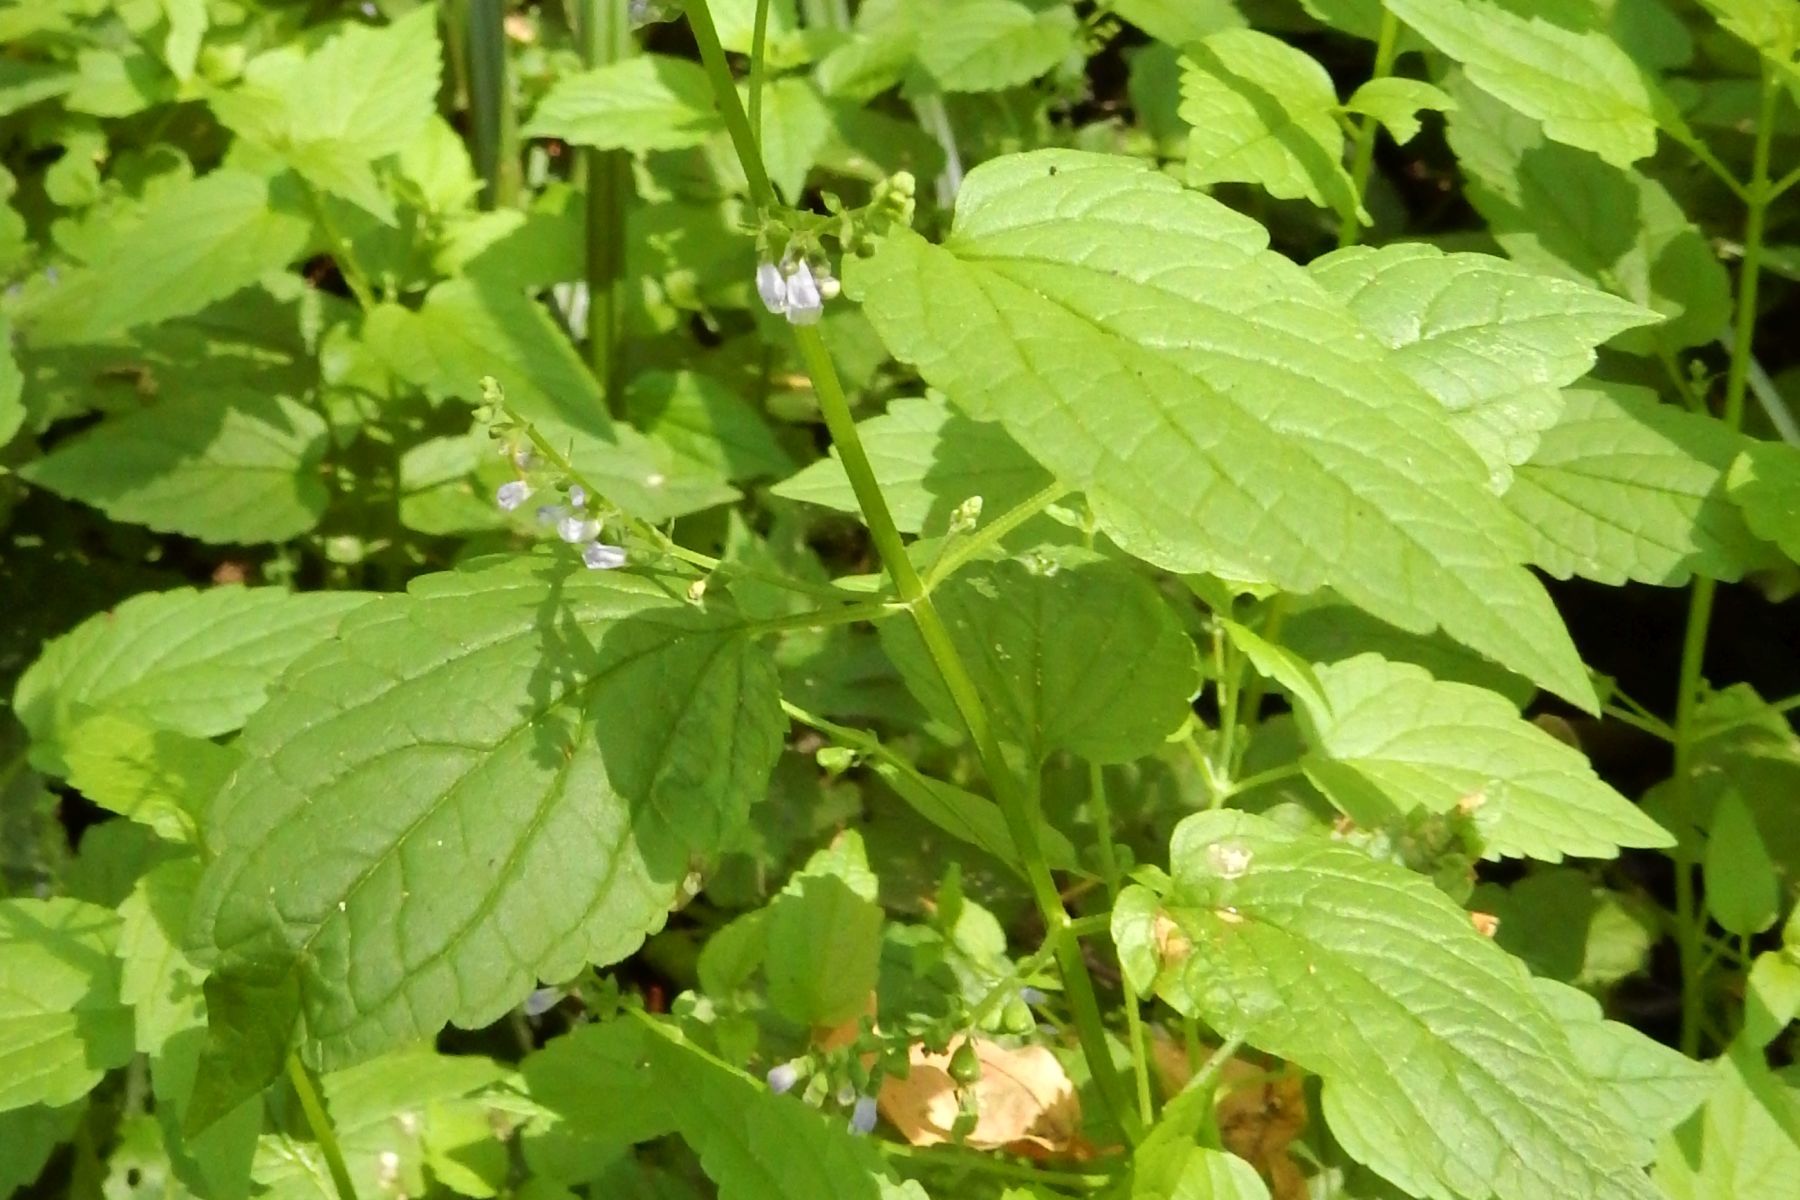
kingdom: Plantae
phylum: Tracheophyta
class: Magnoliopsida
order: Lamiales
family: Lamiaceae
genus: Scutellaria
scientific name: Scutellaria lateriflora
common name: Blue skullcap
